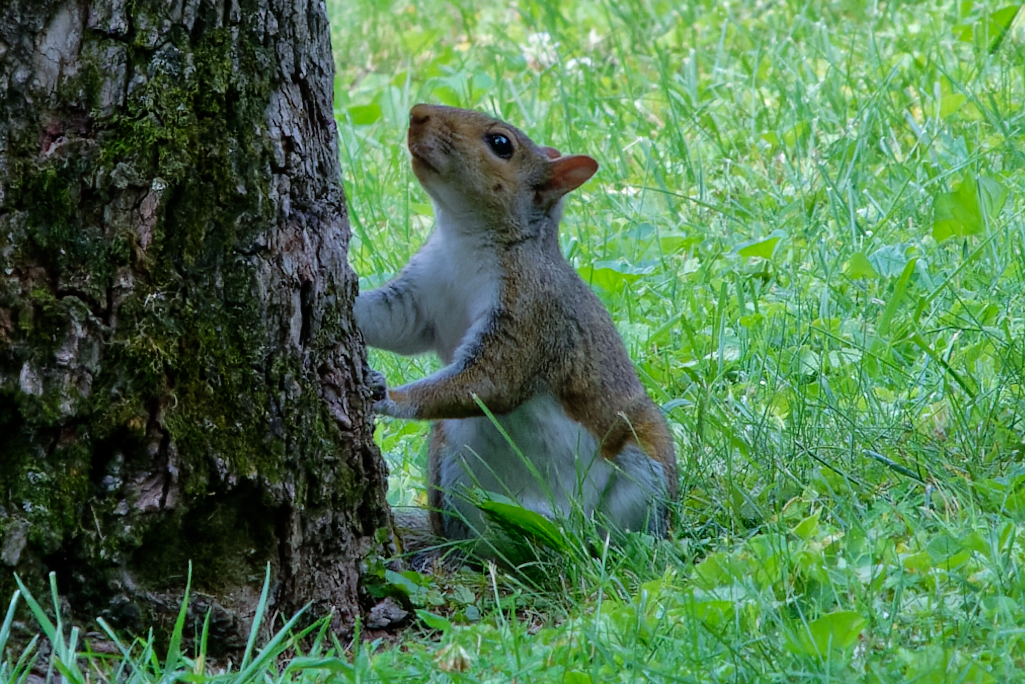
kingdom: Animalia
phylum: Chordata
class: Mammalia
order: Rodentia
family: Sciuridae
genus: Sciurus
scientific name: Sciurus carolinensis
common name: Eastern gray squirrel
